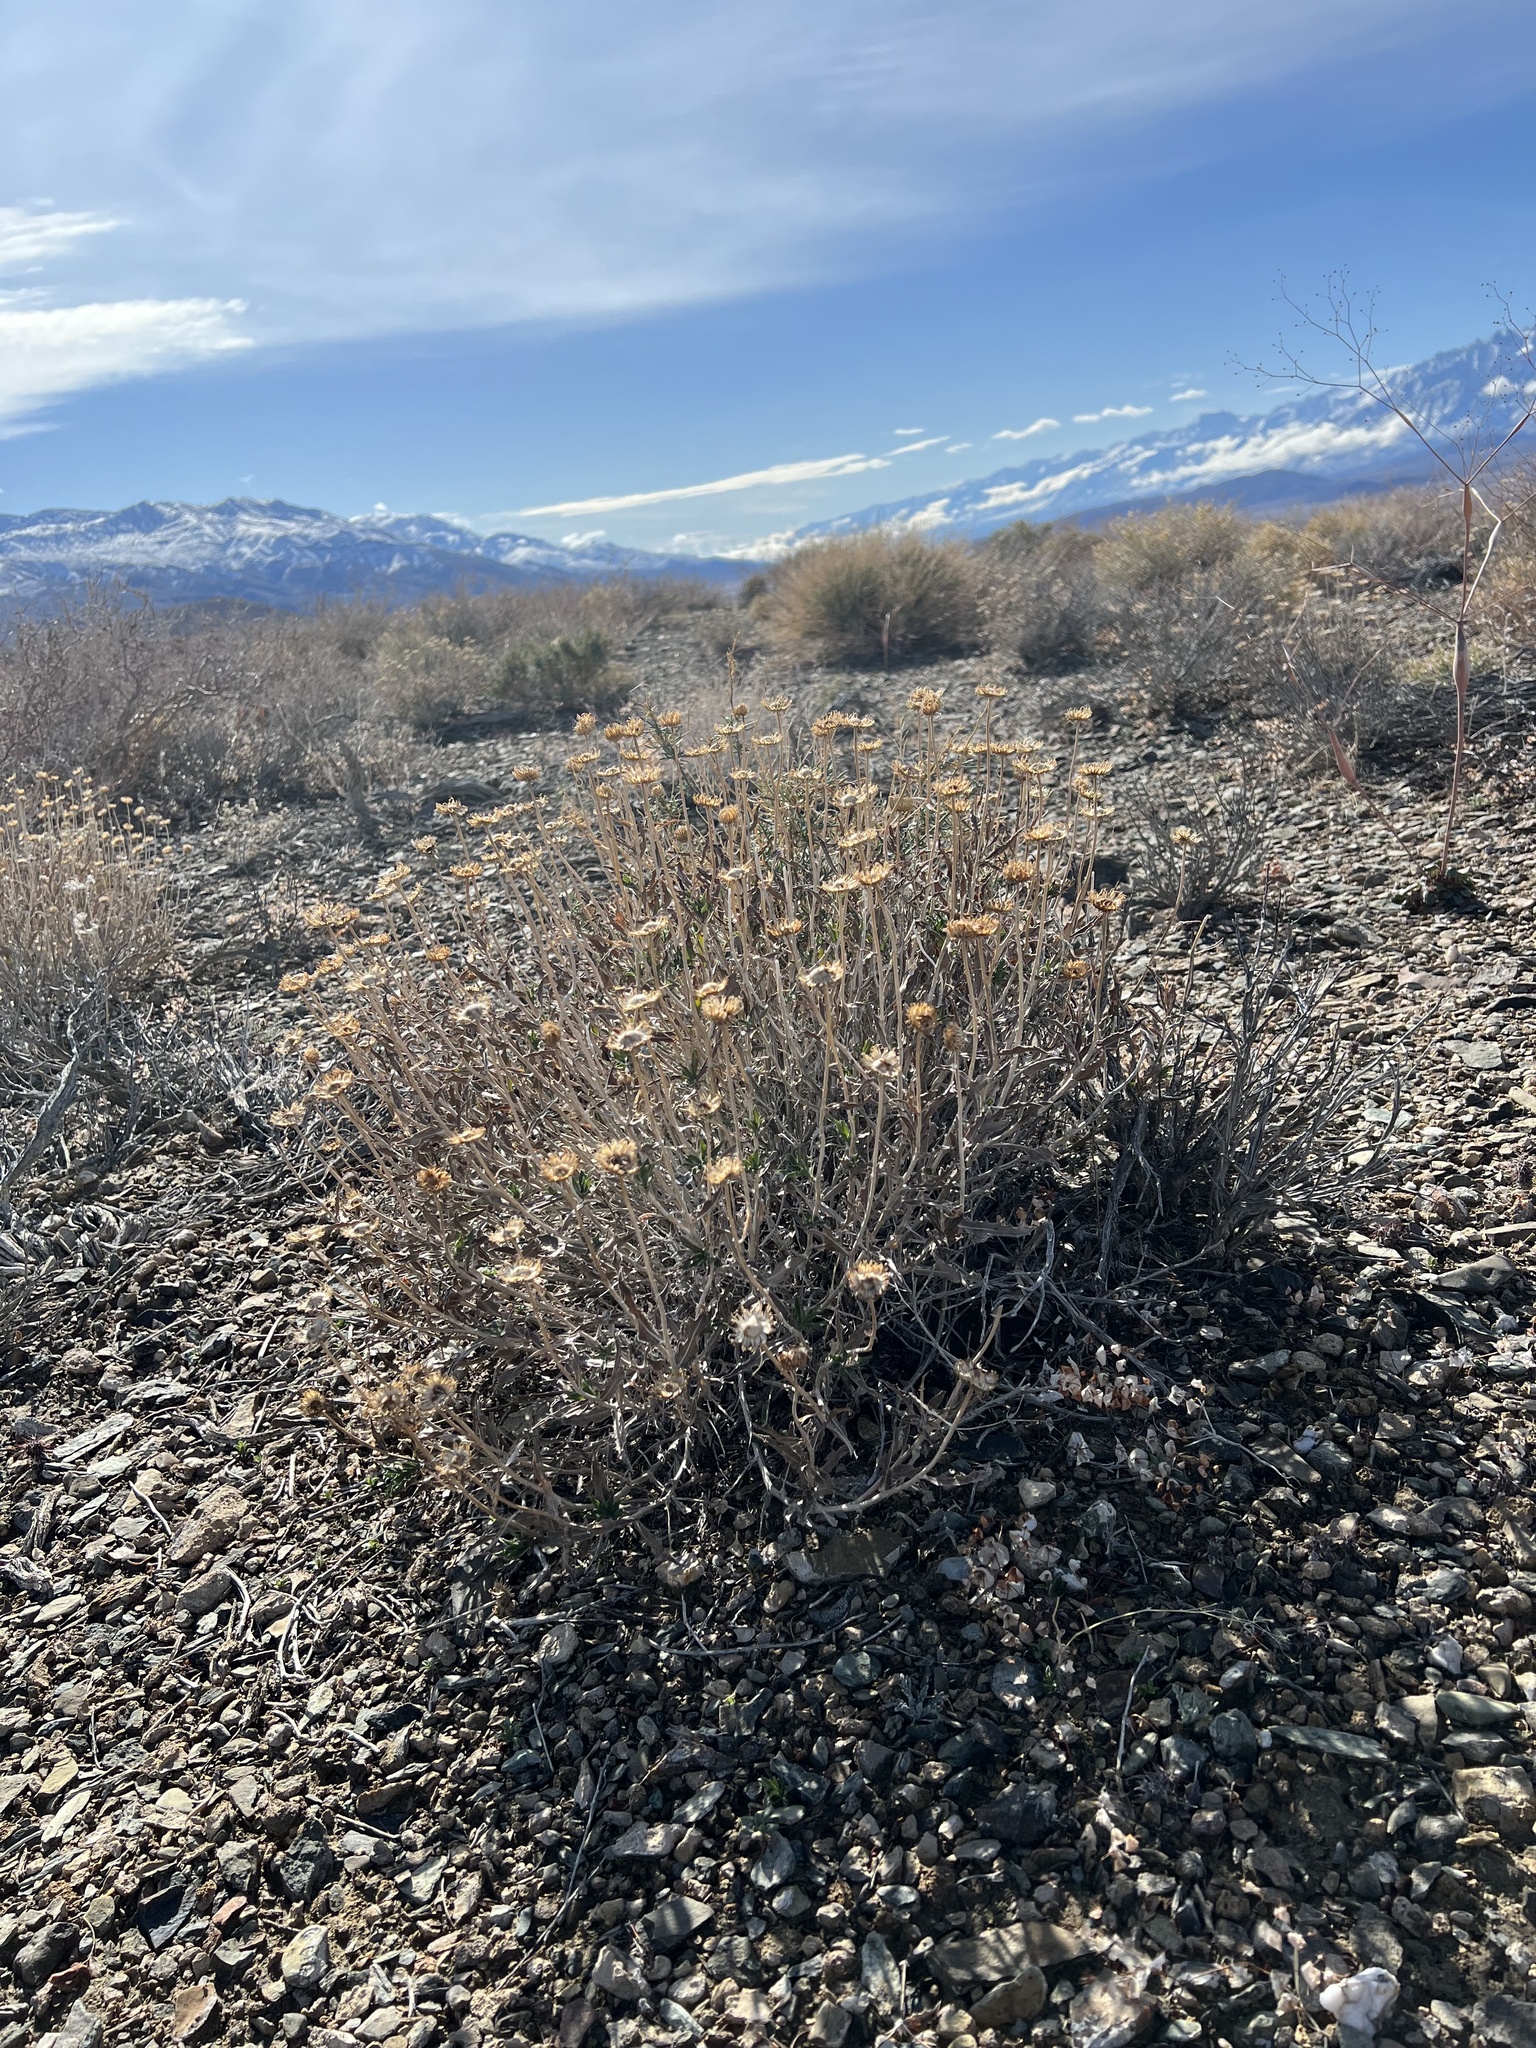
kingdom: Plantae
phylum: Tracheophyta
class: Magnoliopsida
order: Asterales
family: Asteraceae
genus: Xylorhiza
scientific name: Xylorhiza tortifolia
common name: Hurt-leaf woody-aster
